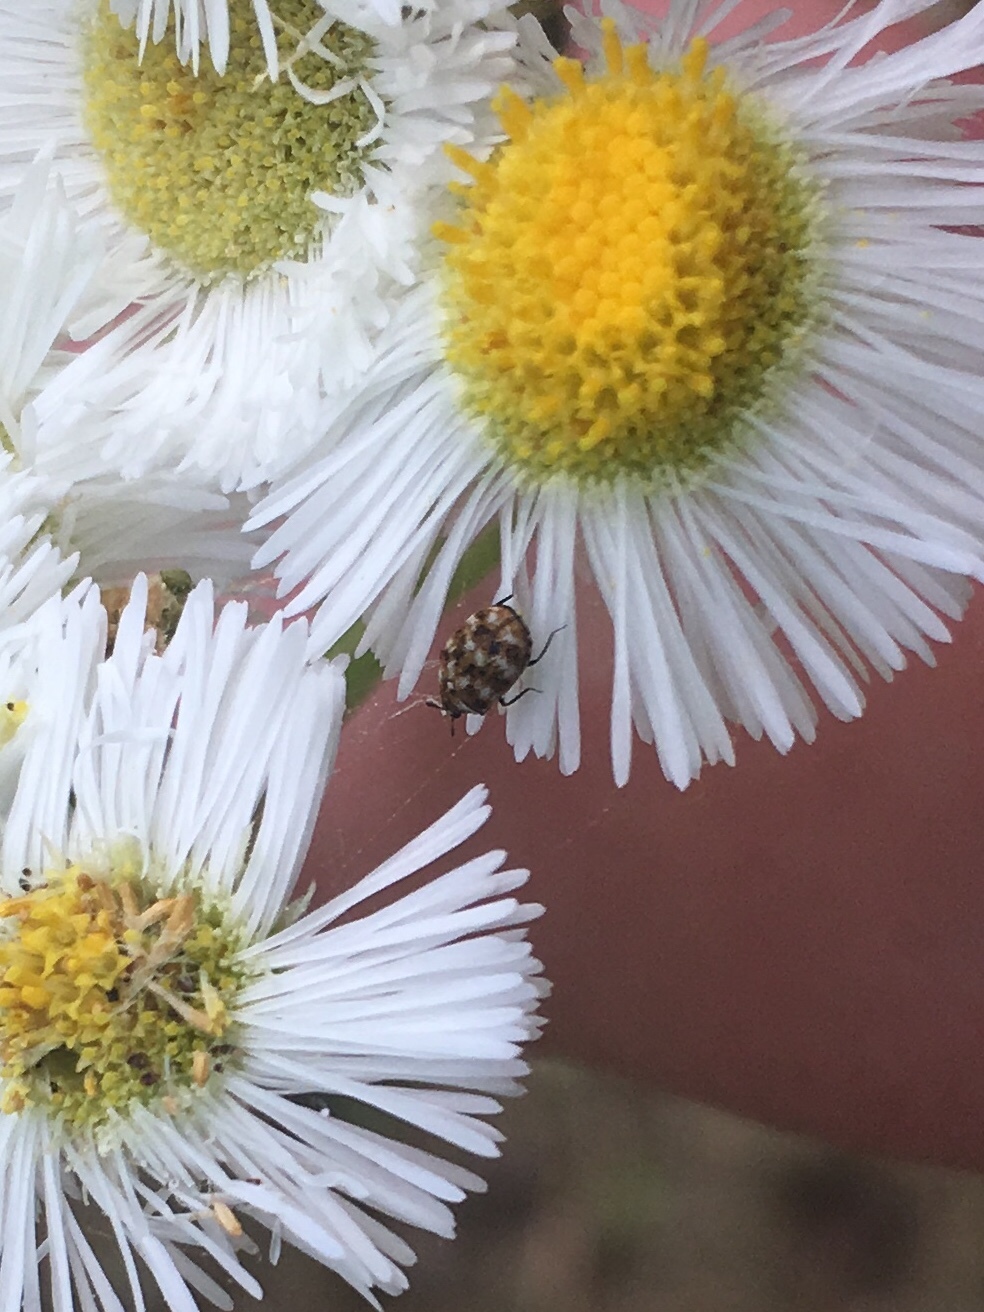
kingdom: Animalia
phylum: Arthropoda
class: Insecta
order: Coleoptera
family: Dermestidae
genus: Anthrenus
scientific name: Anthrenus verbasci
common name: Varied carpet beetle
